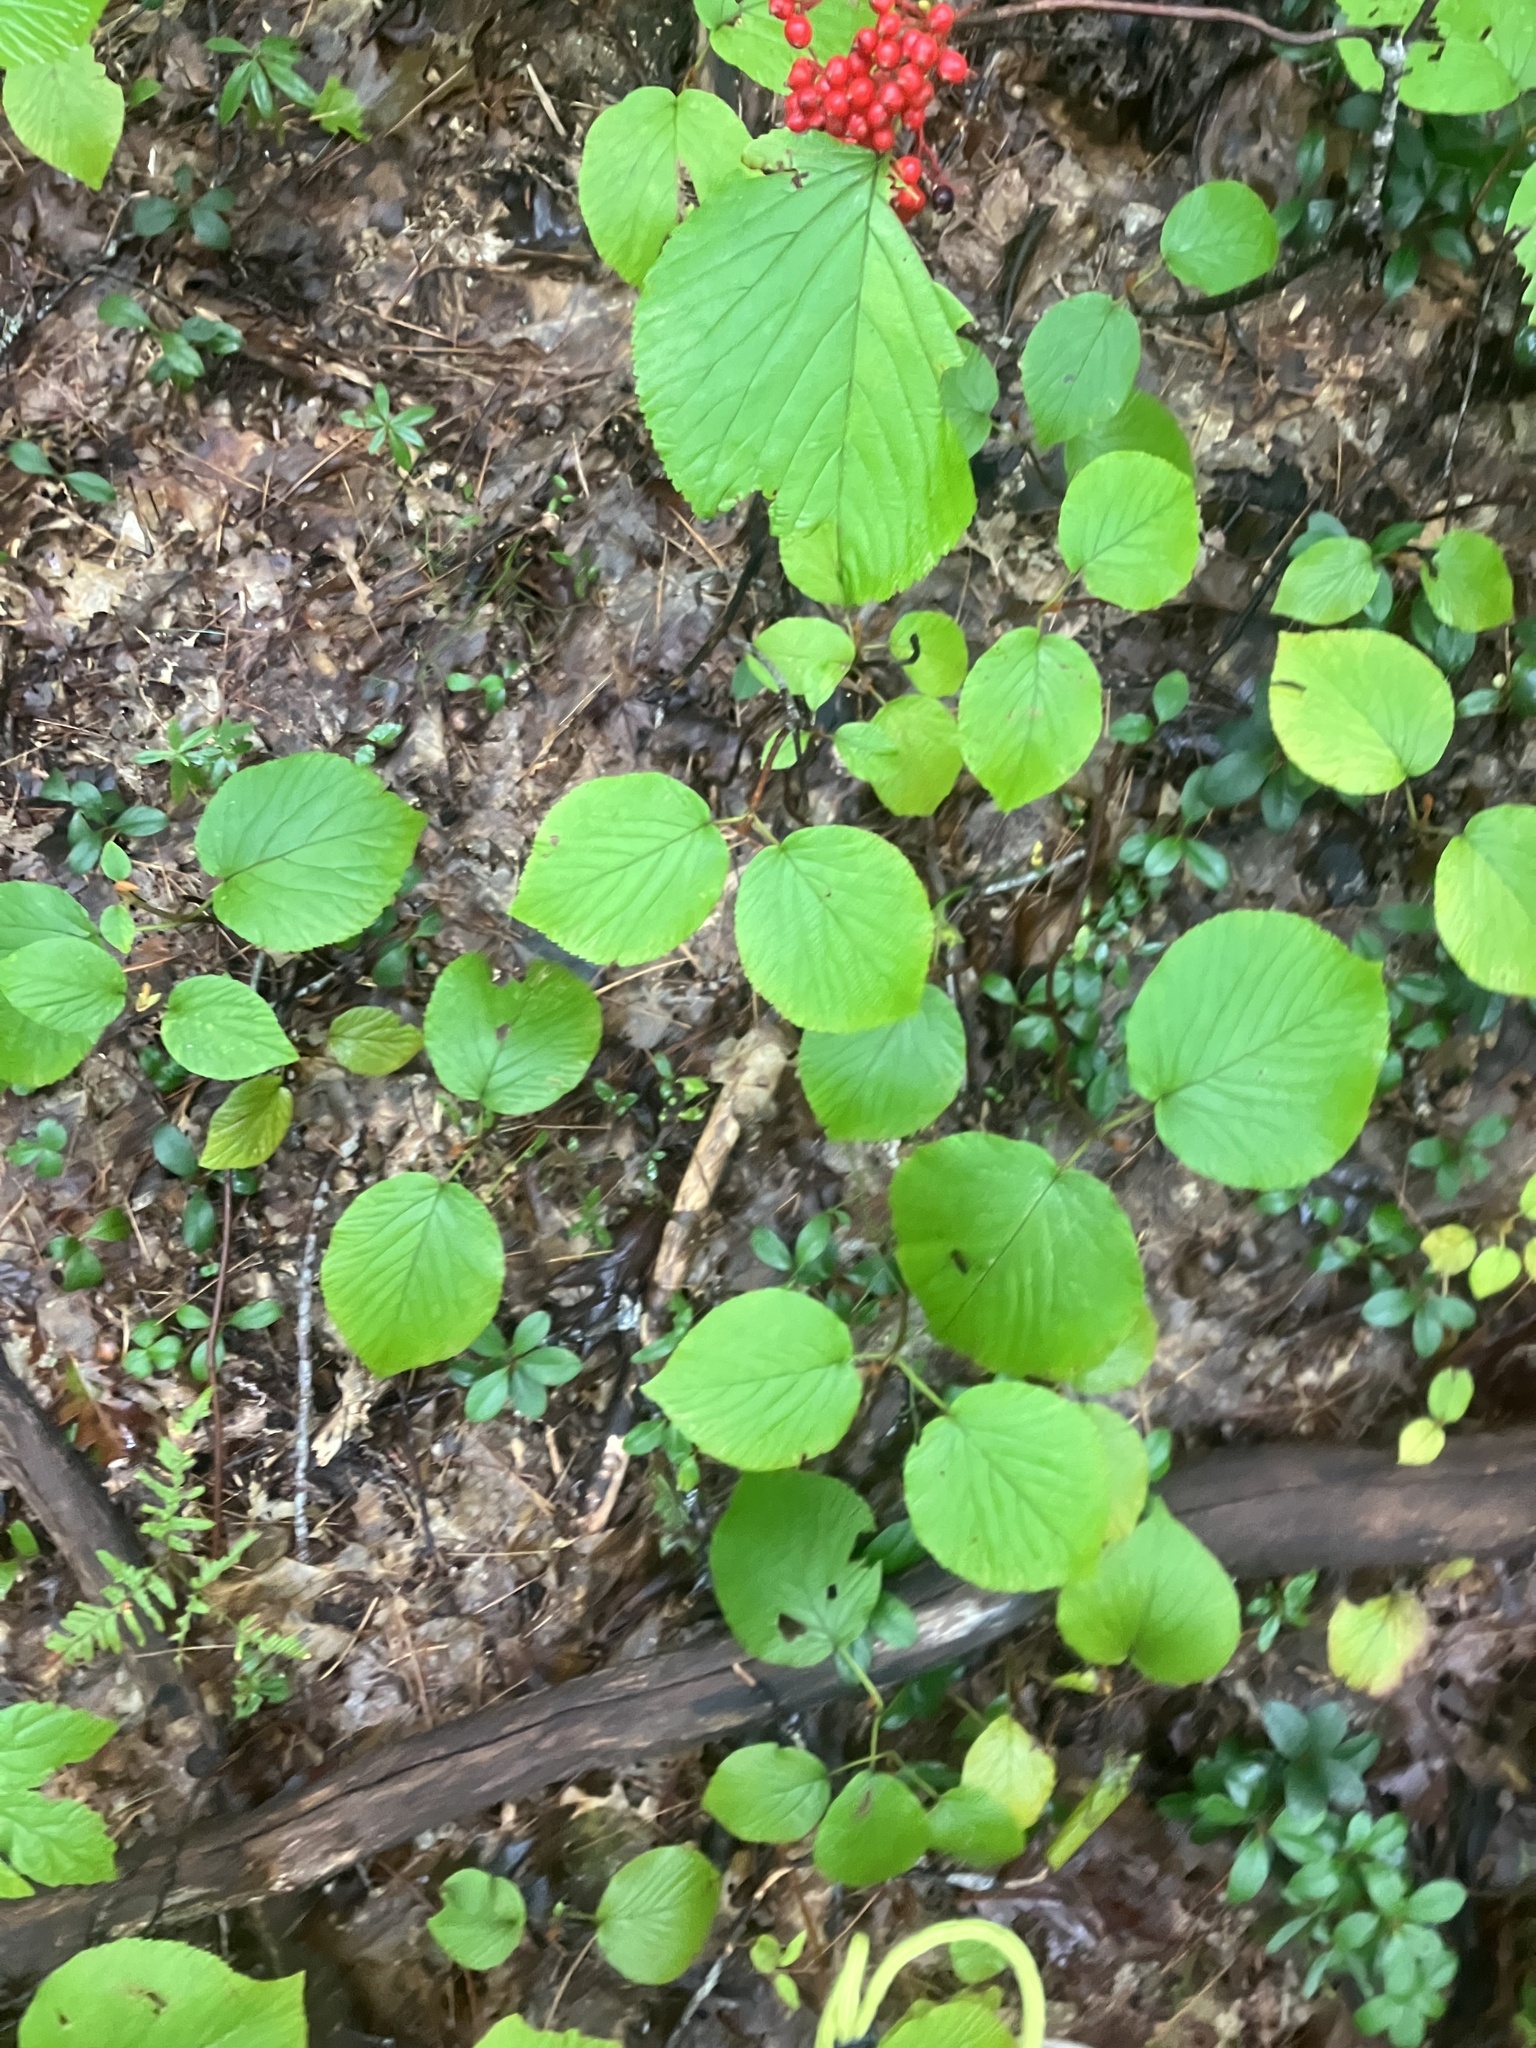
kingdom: Plantae
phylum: Tracheophyta
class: Magnoliopsida
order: Dipsacales
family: Viburnaceae
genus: Viburnum
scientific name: Viburnum lantanoides
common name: Hobblebush
